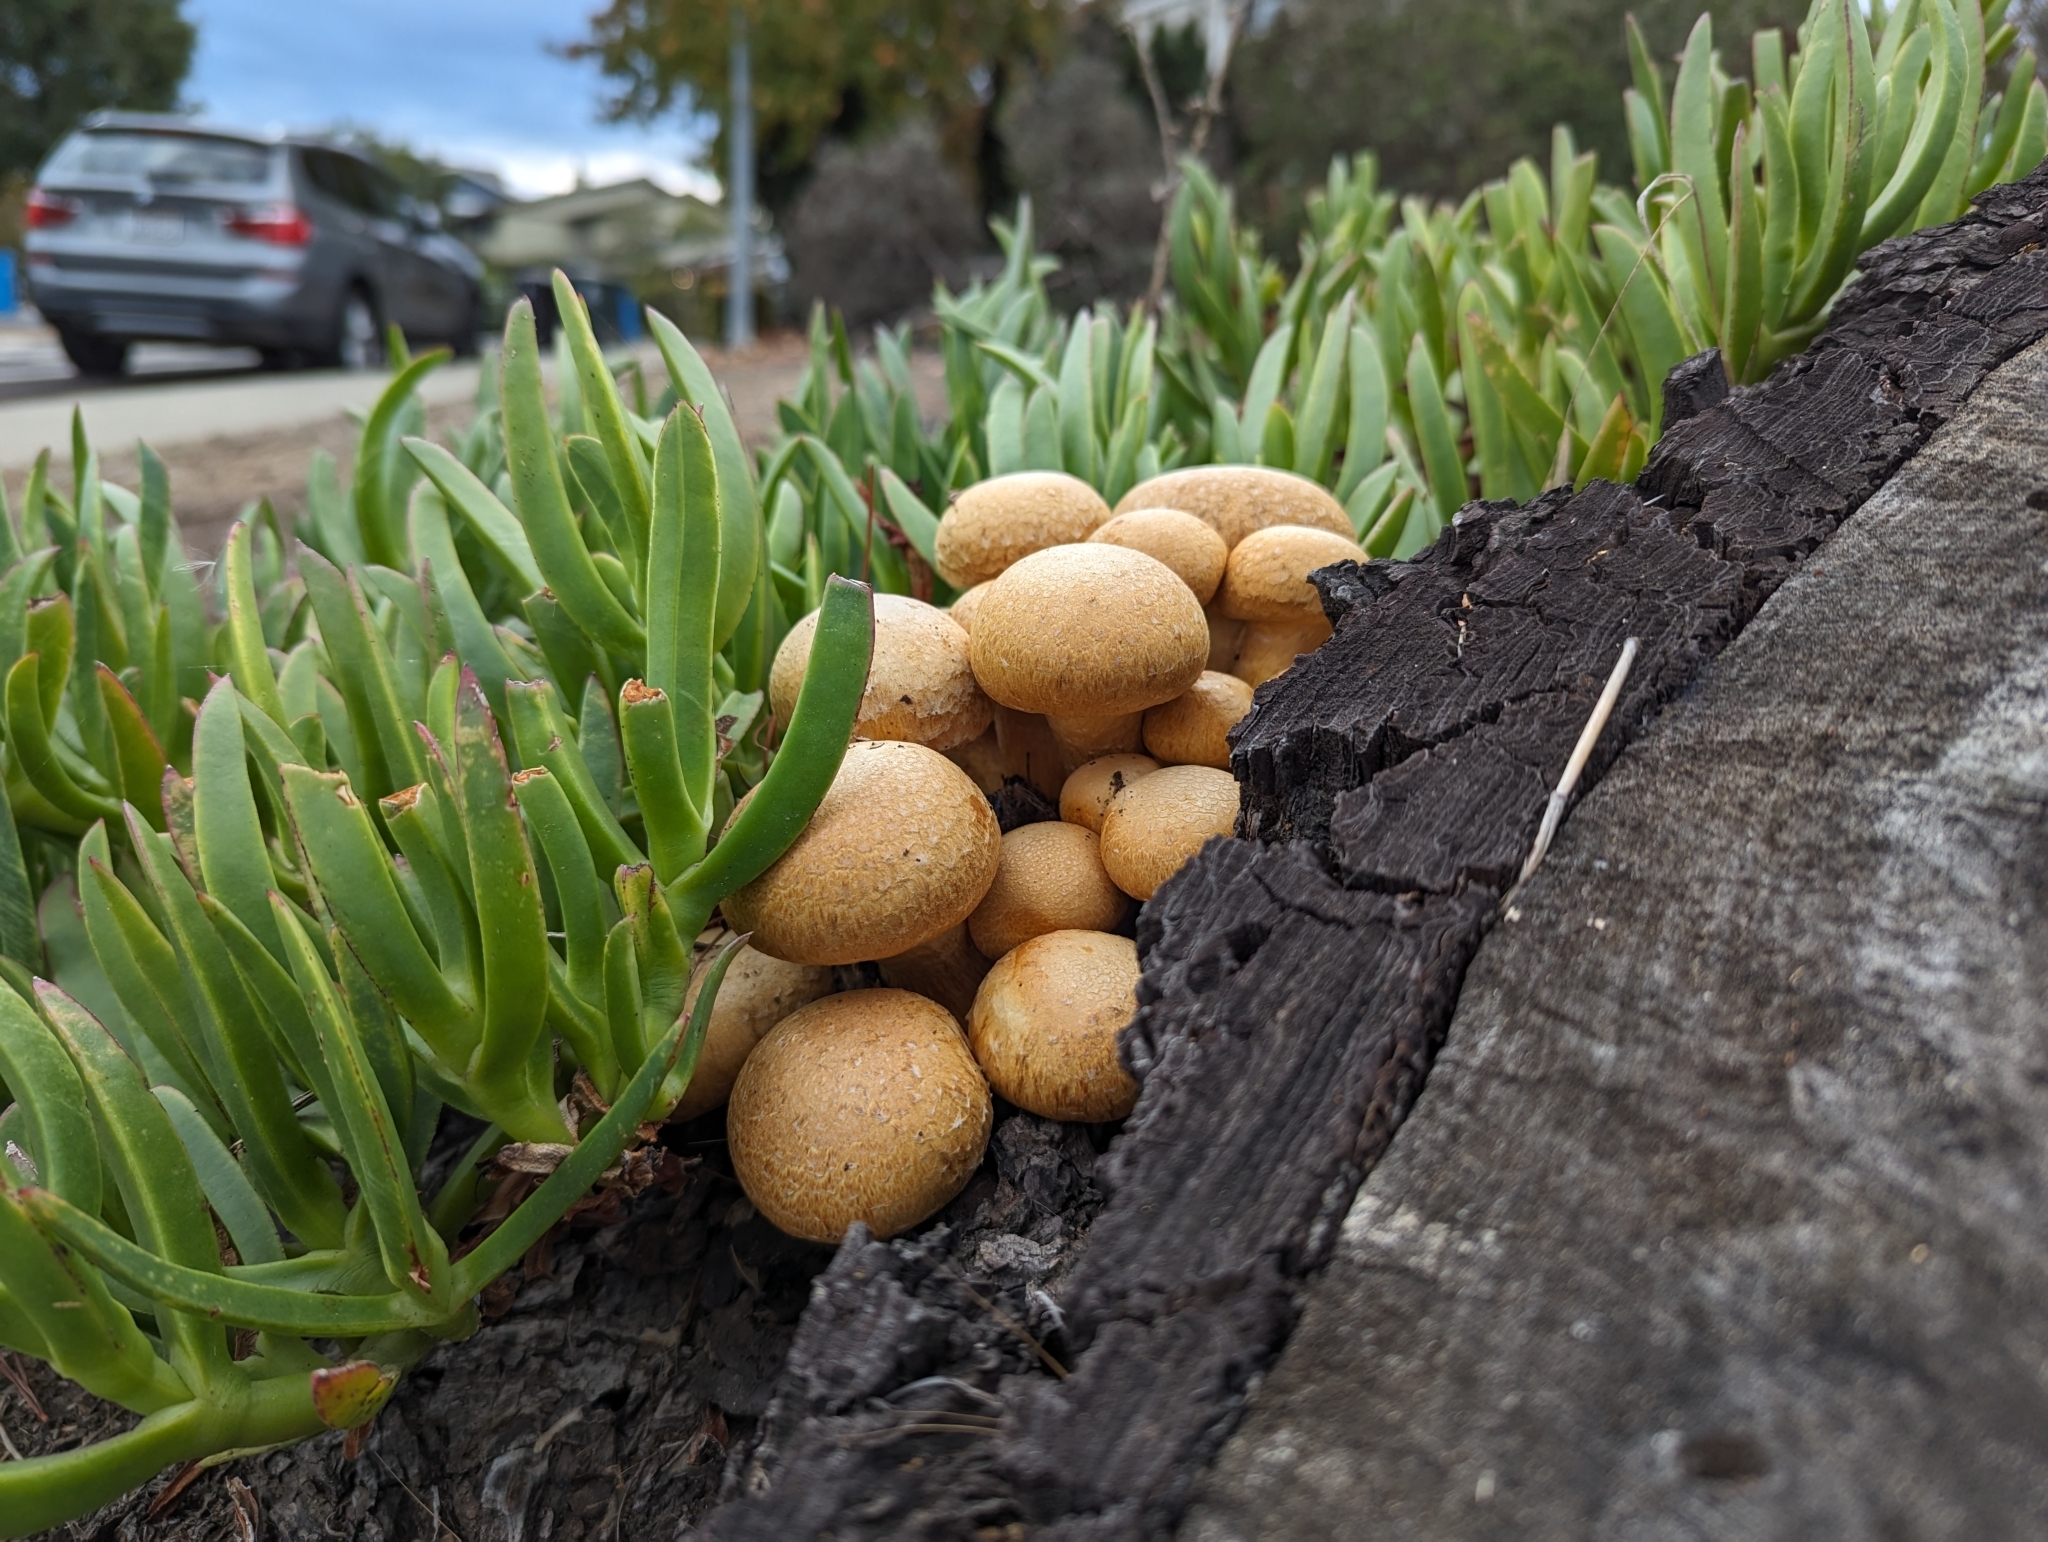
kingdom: Fungi
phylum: Basidiomycota
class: Agaricomycetes
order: Agaricales
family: Hymenogastraceae
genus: Gymnopilus
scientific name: Gymnopilus ventricosus
